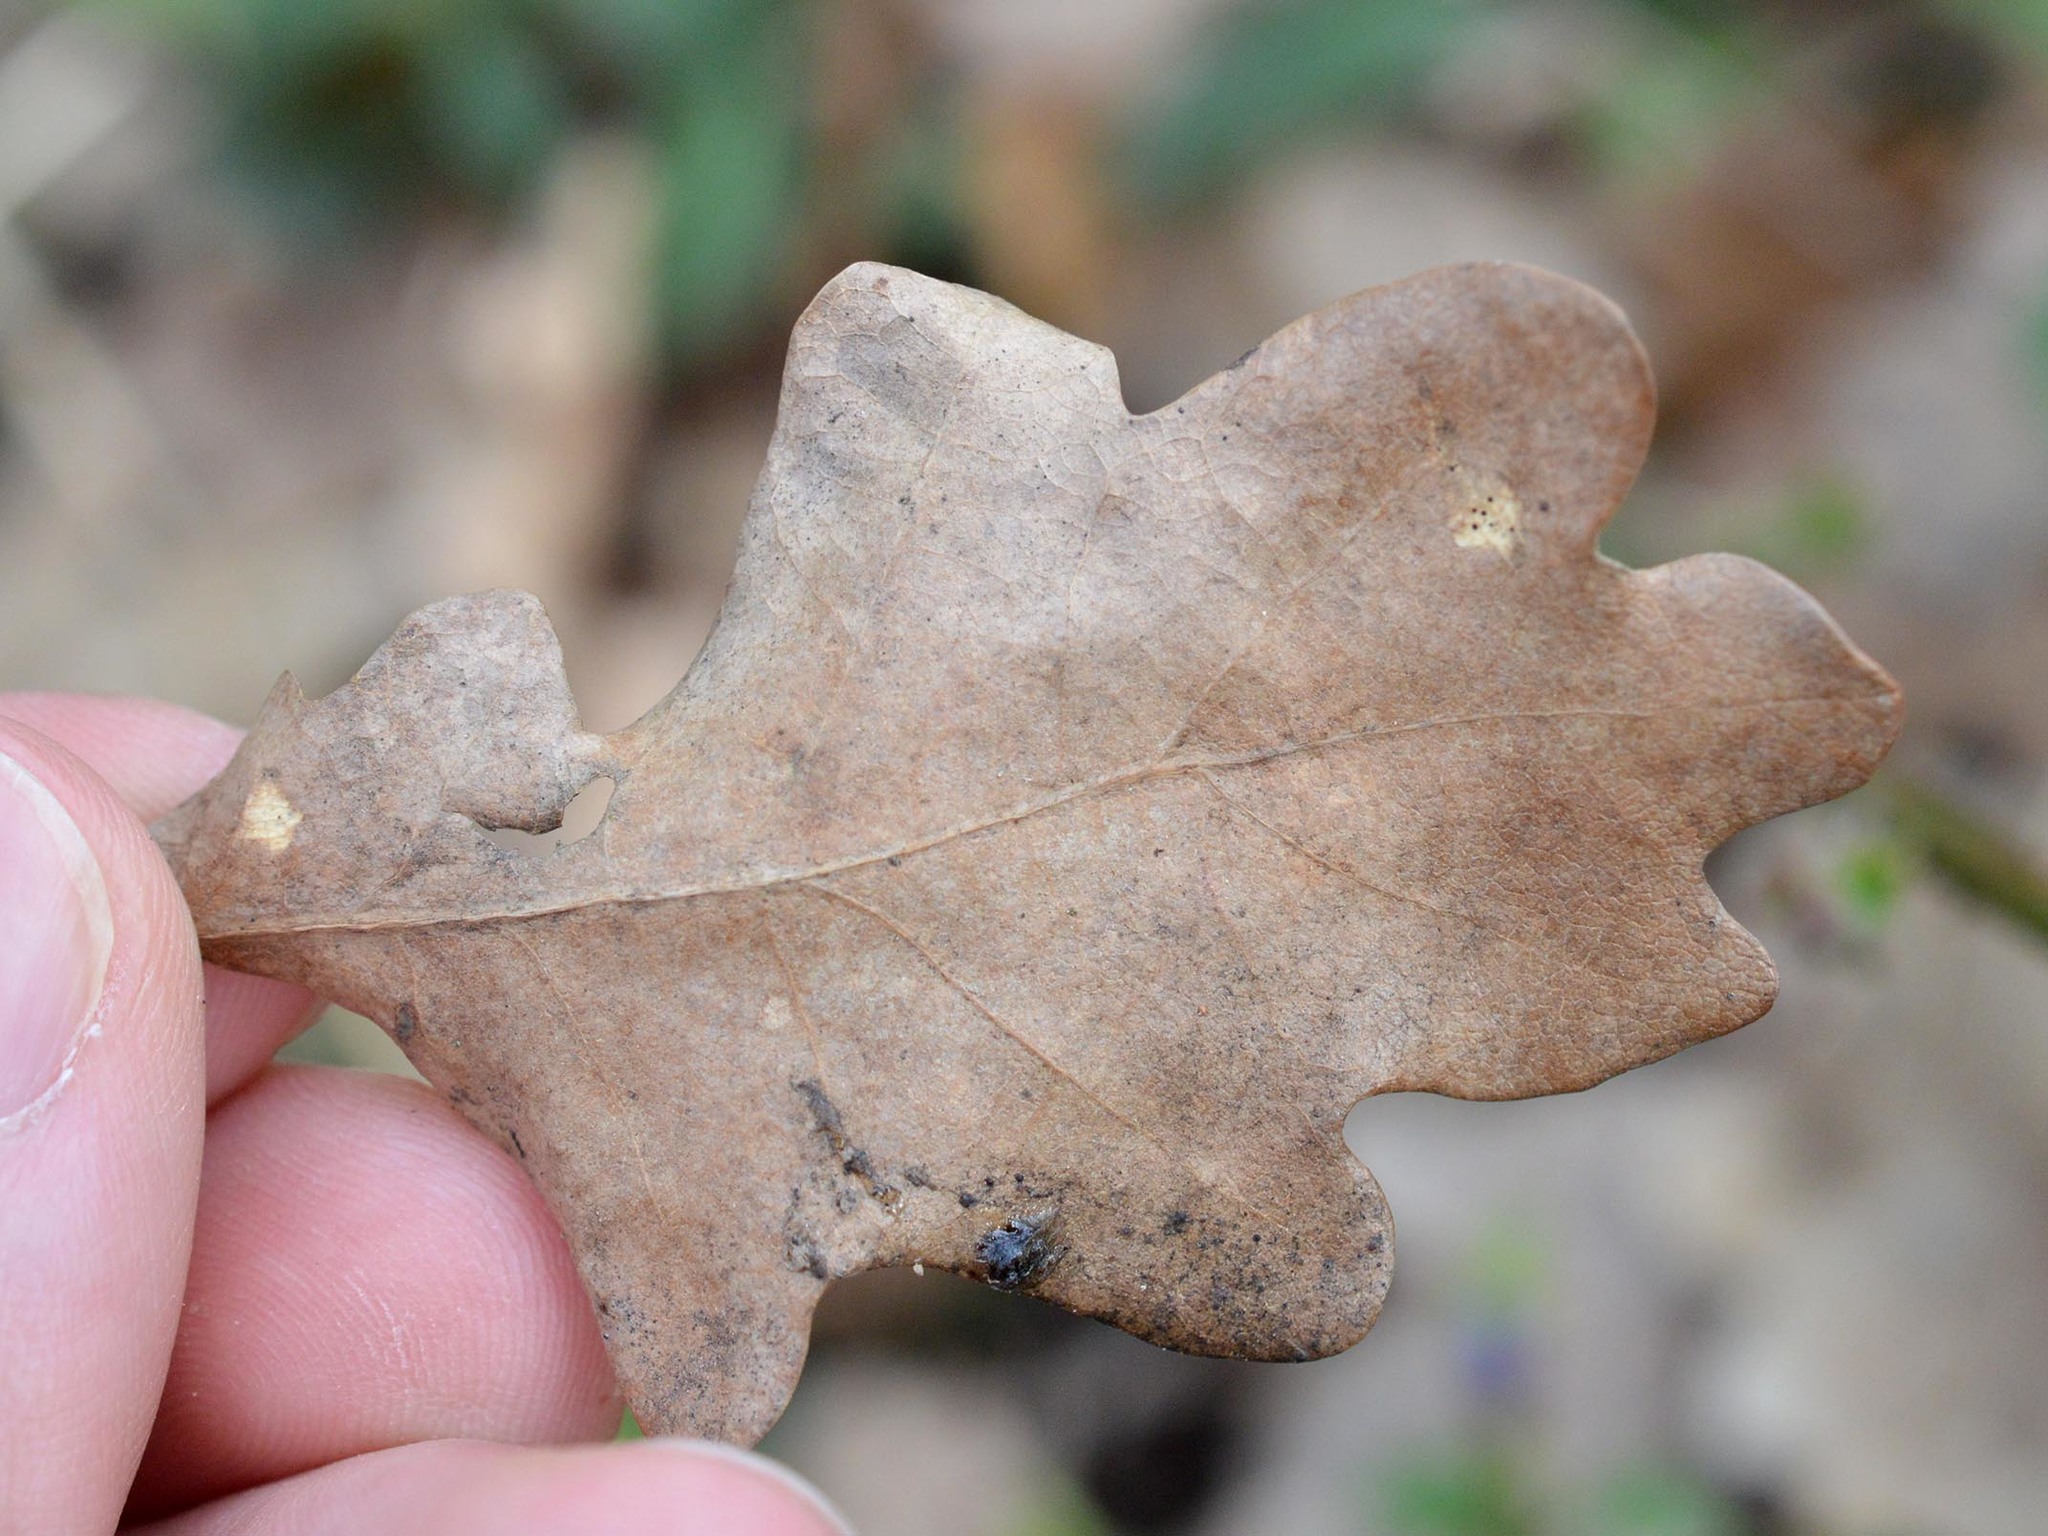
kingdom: Animalia
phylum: Arthropoda
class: Insecta
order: Hymenoptera
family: Cynipidae
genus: Cynips
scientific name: Cynips longiventris
